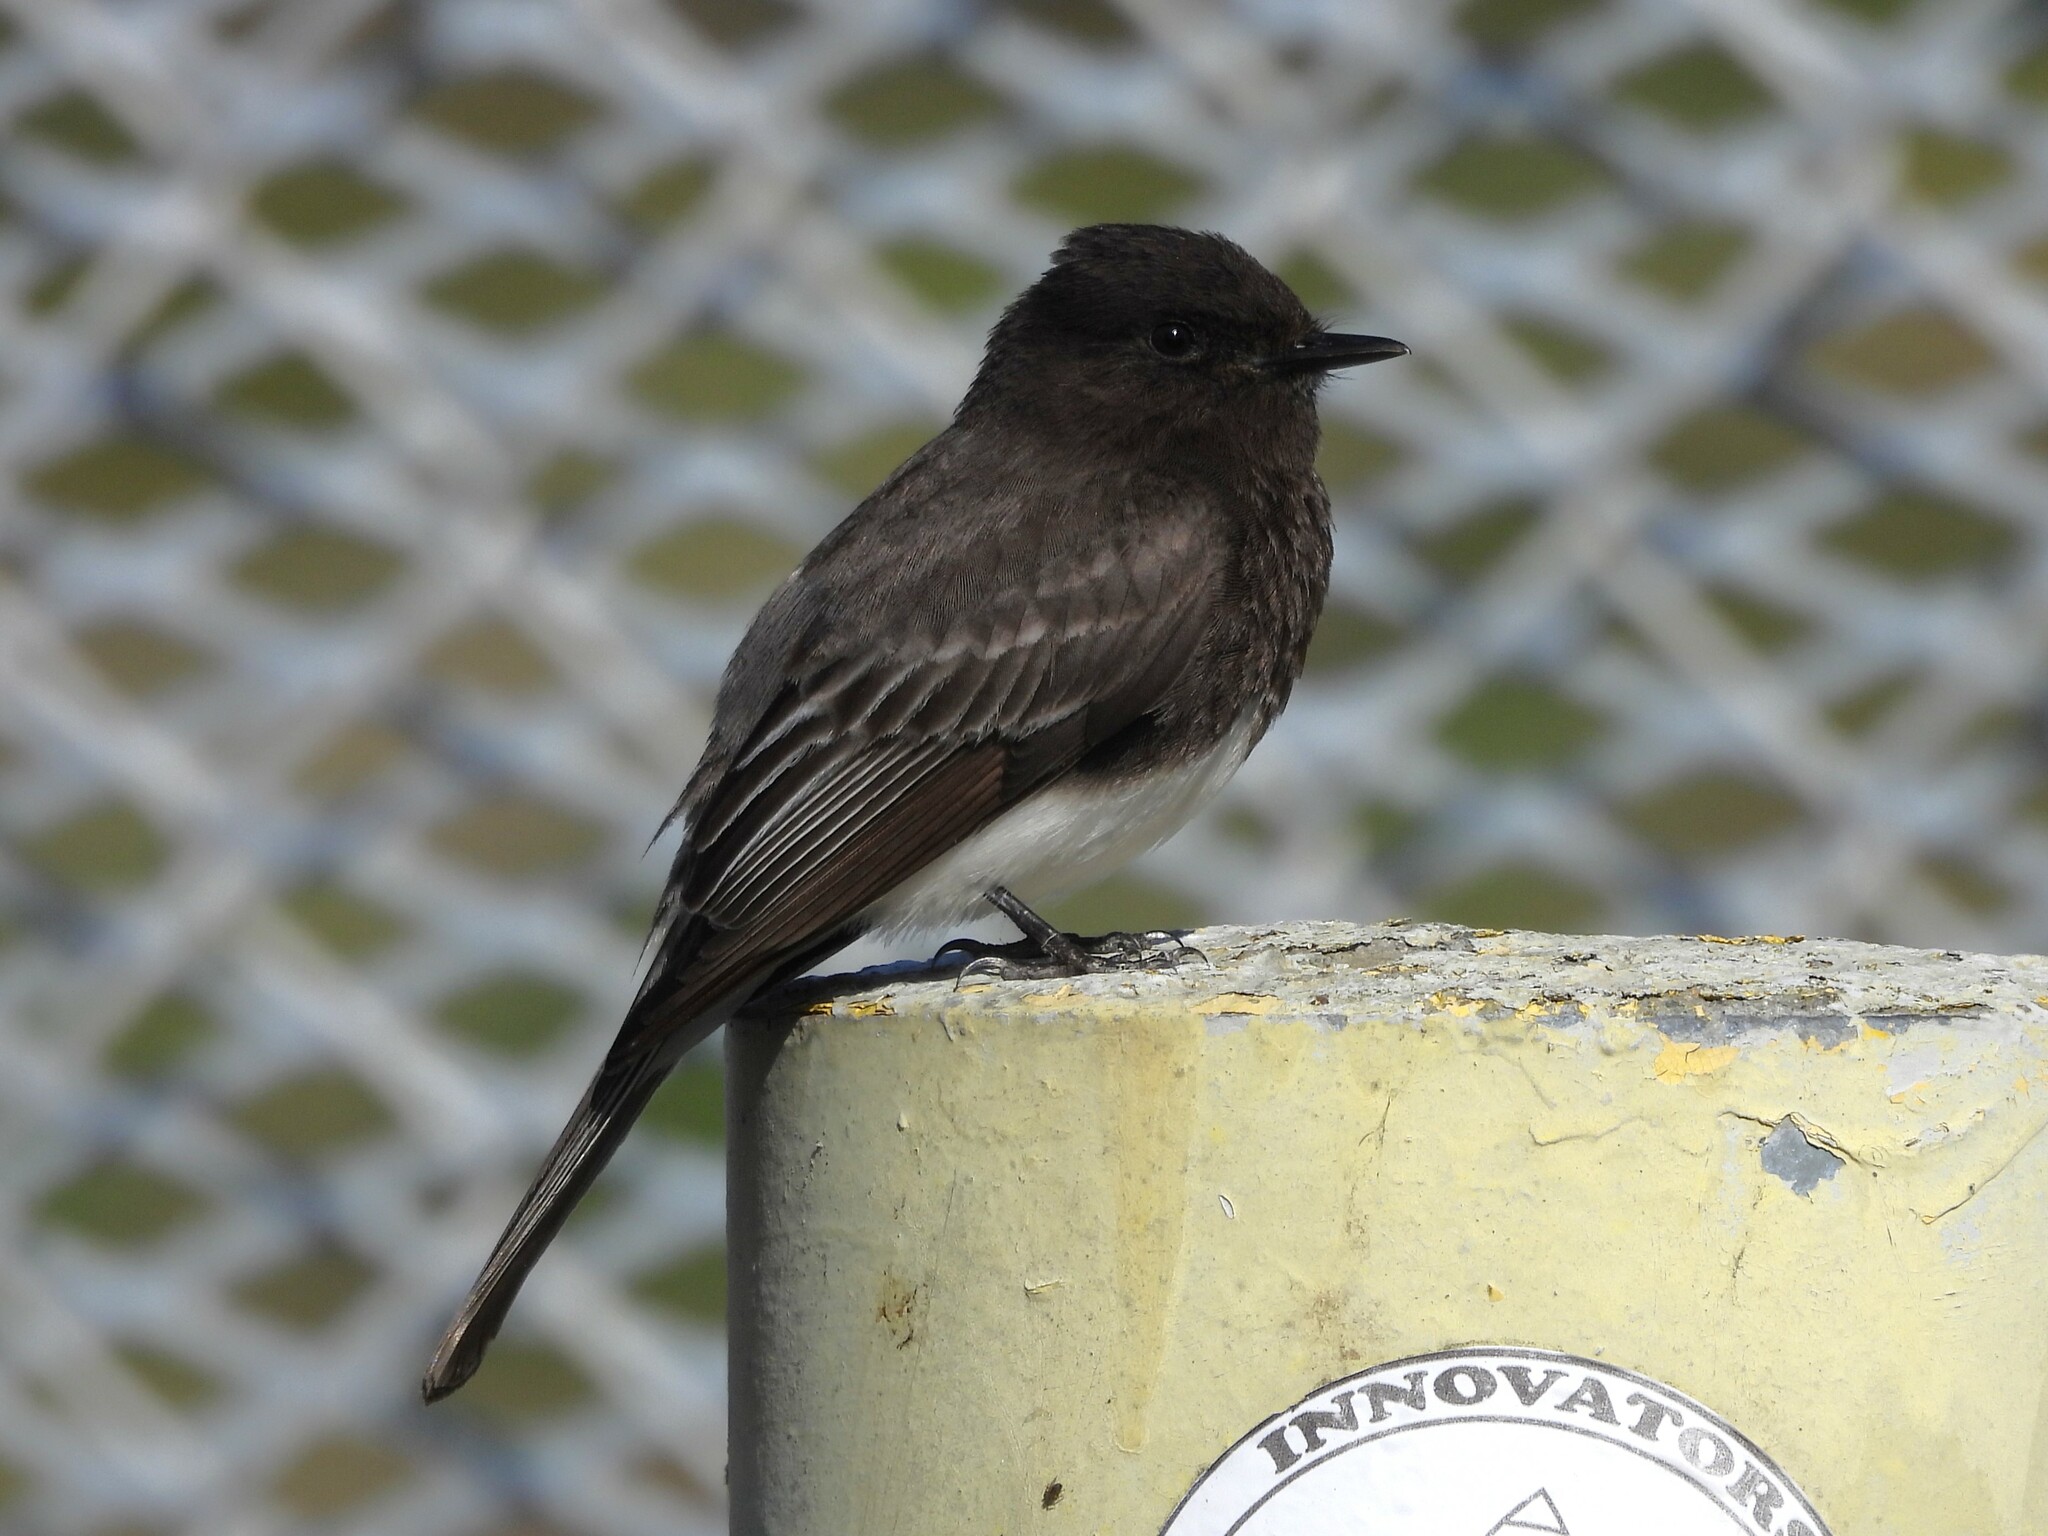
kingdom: Animalia
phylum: Chordata
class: Aves
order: Passeriformes
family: Tyrannidae
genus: Sayornis
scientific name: Sayornis nigricans
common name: Black phoebe
